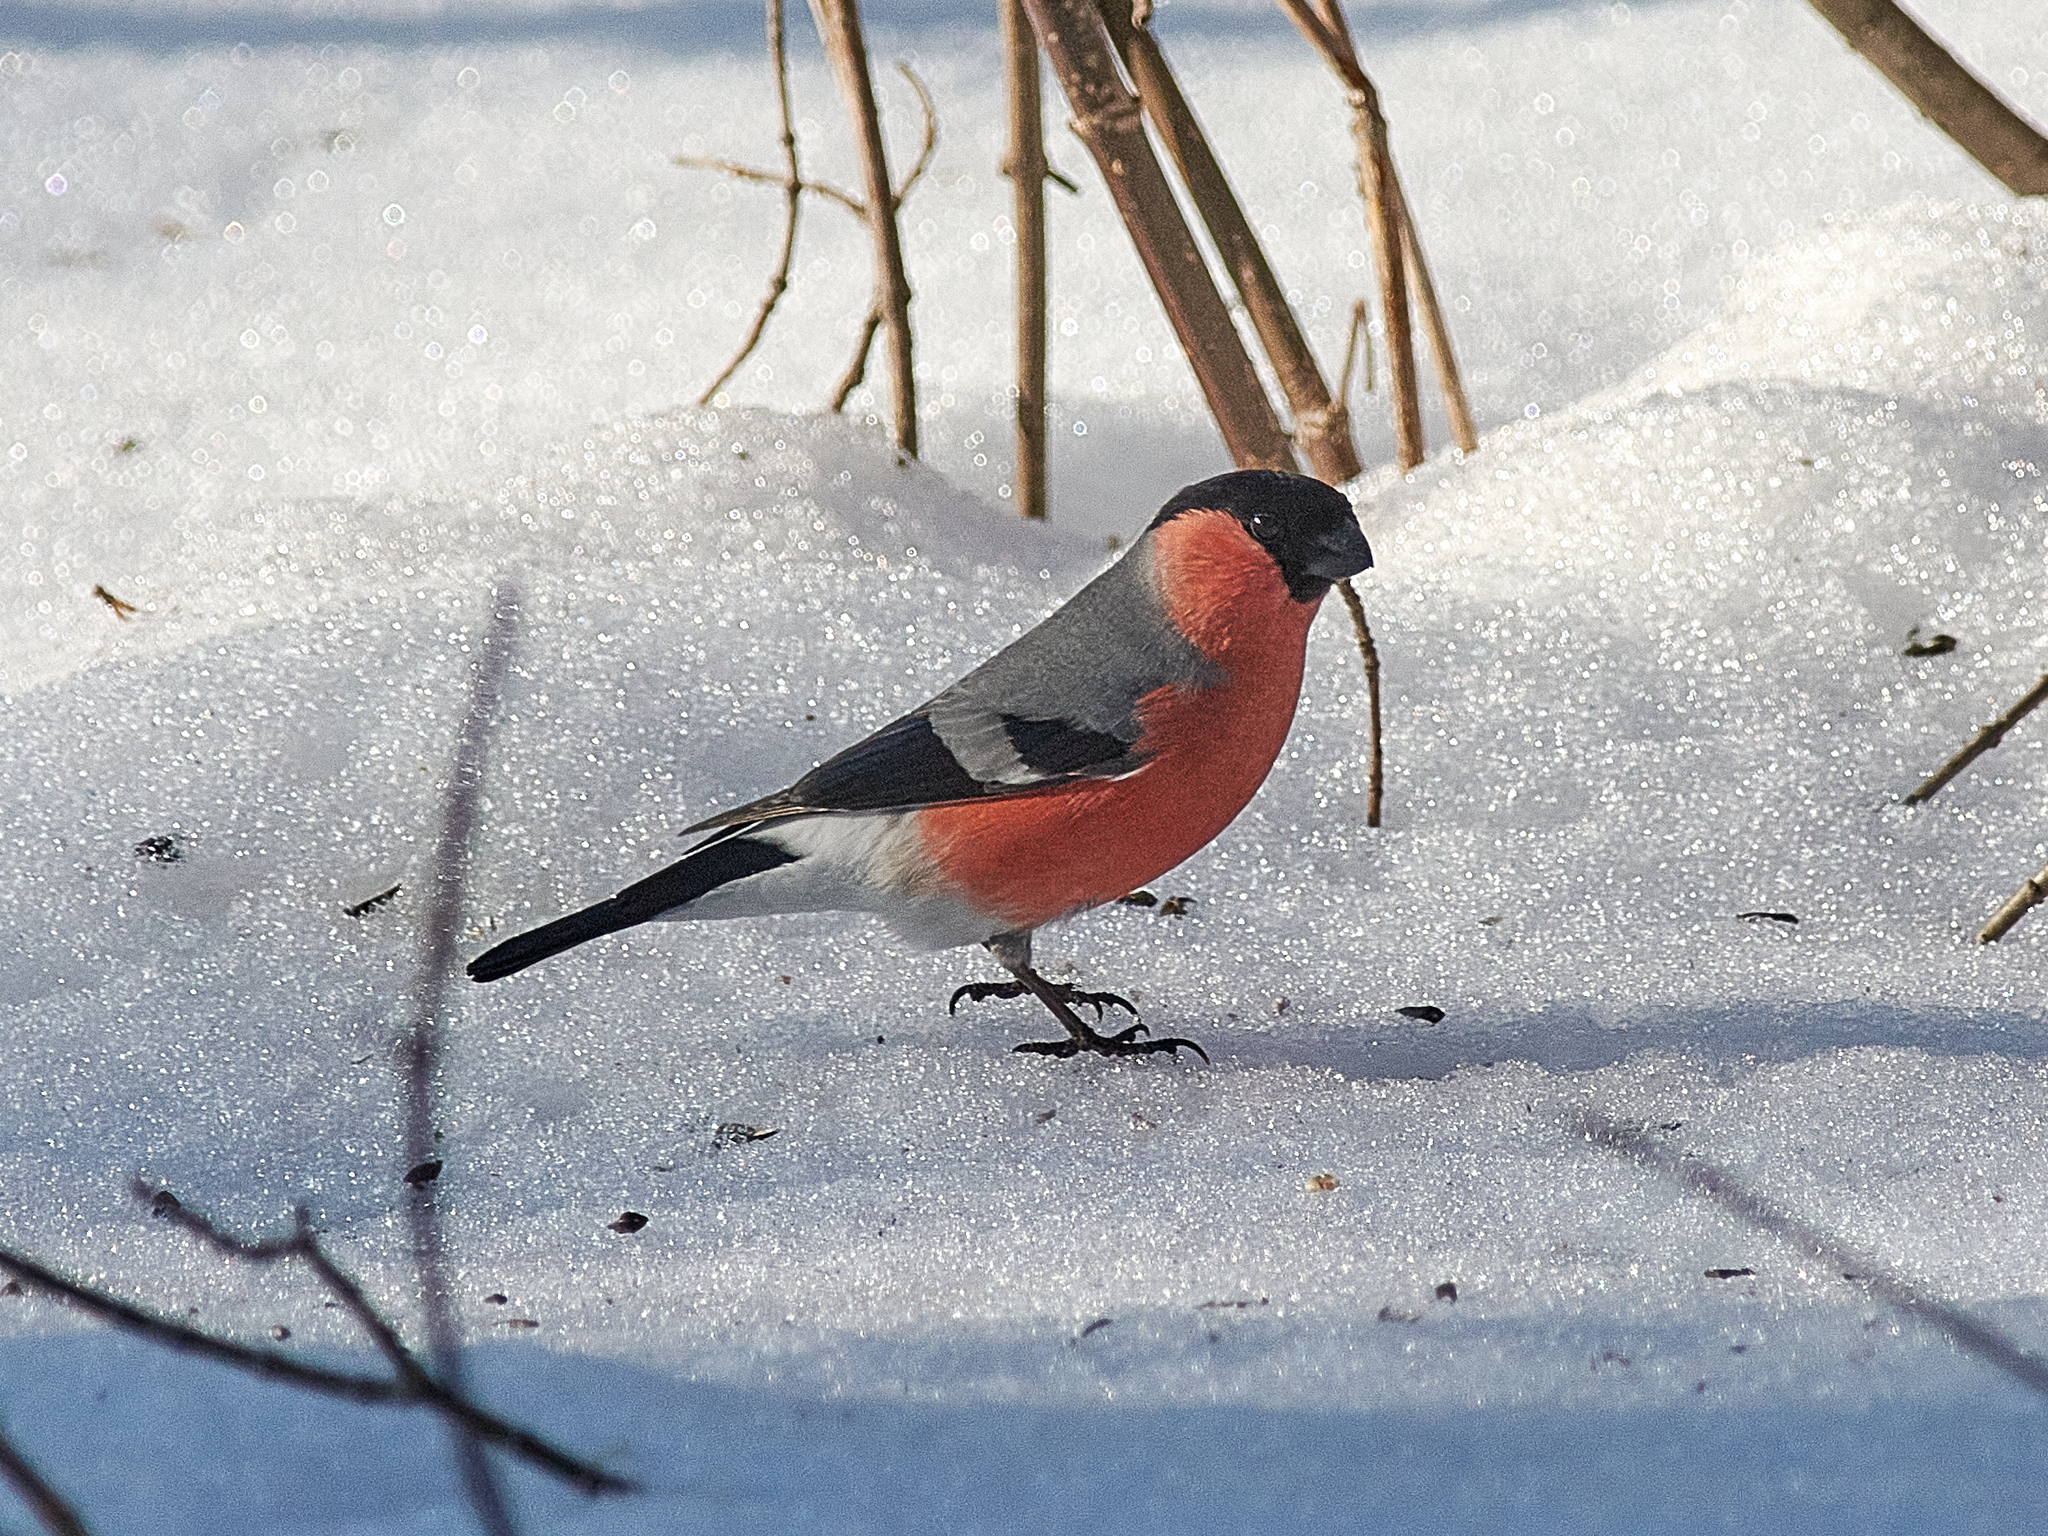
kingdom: Animalia
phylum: Chordata
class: Aves
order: Passeriformes
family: Fringillidae
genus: Pyrrhula
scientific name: Pyrrhula pyrrhula
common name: Eurasian bullfinch
